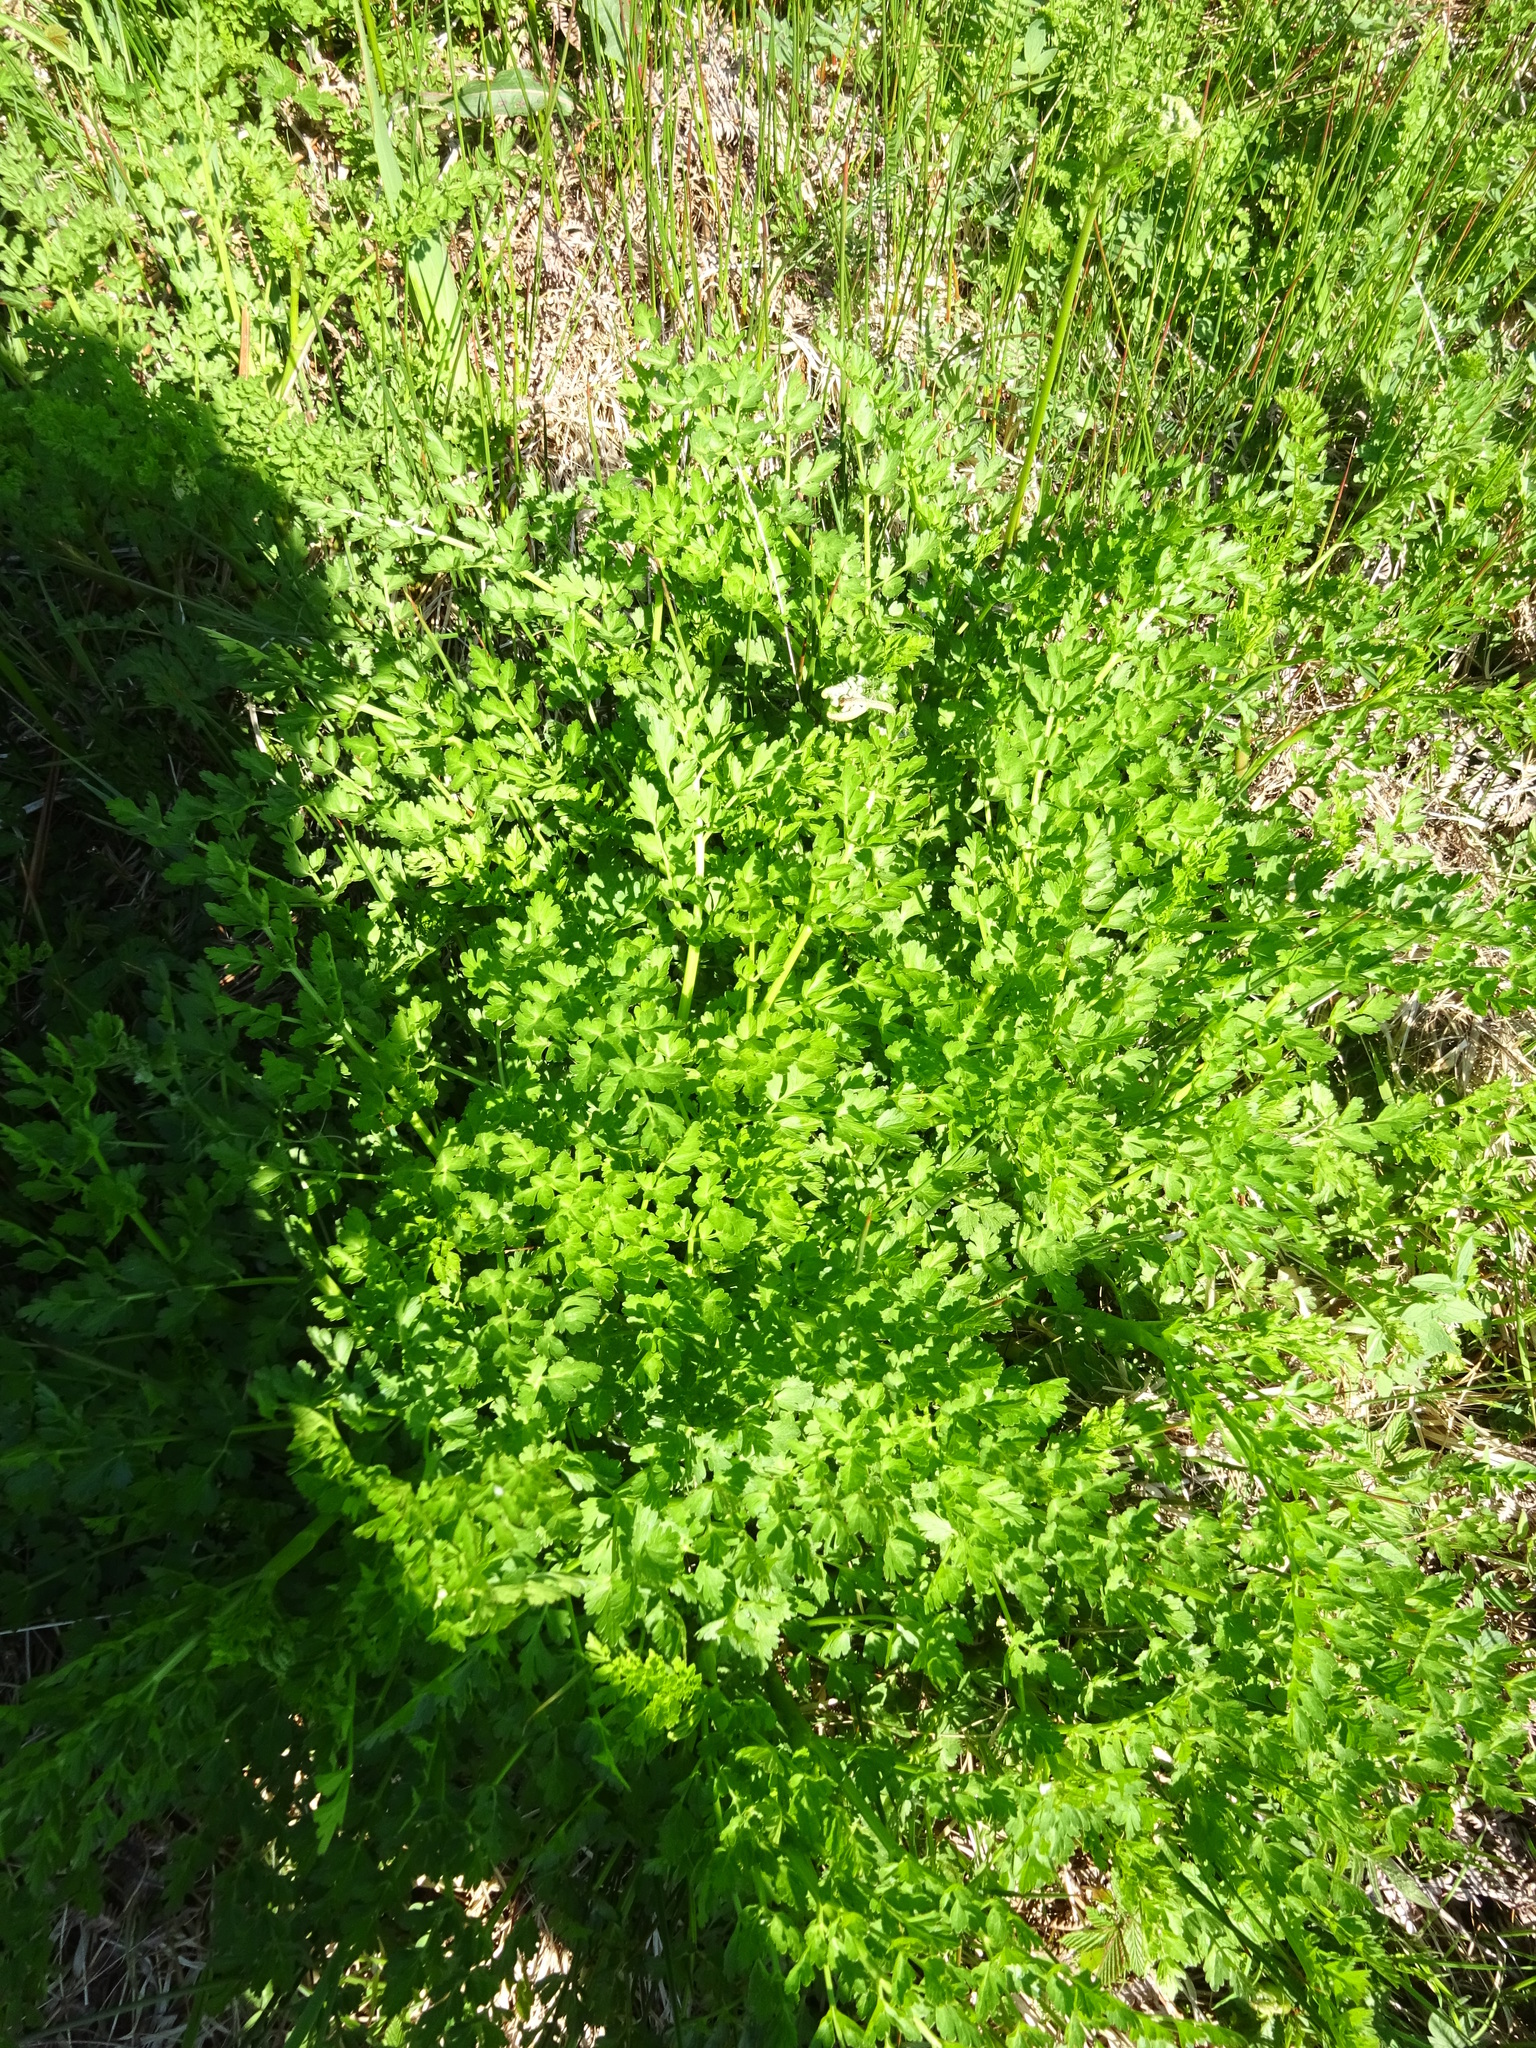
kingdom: Plantae
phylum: Tracheophyta
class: Magnoliopsida
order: Apiales
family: Apiaceae
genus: Oenanthe
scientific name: Oenanthe crocata
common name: Hemlock water-dropwort
